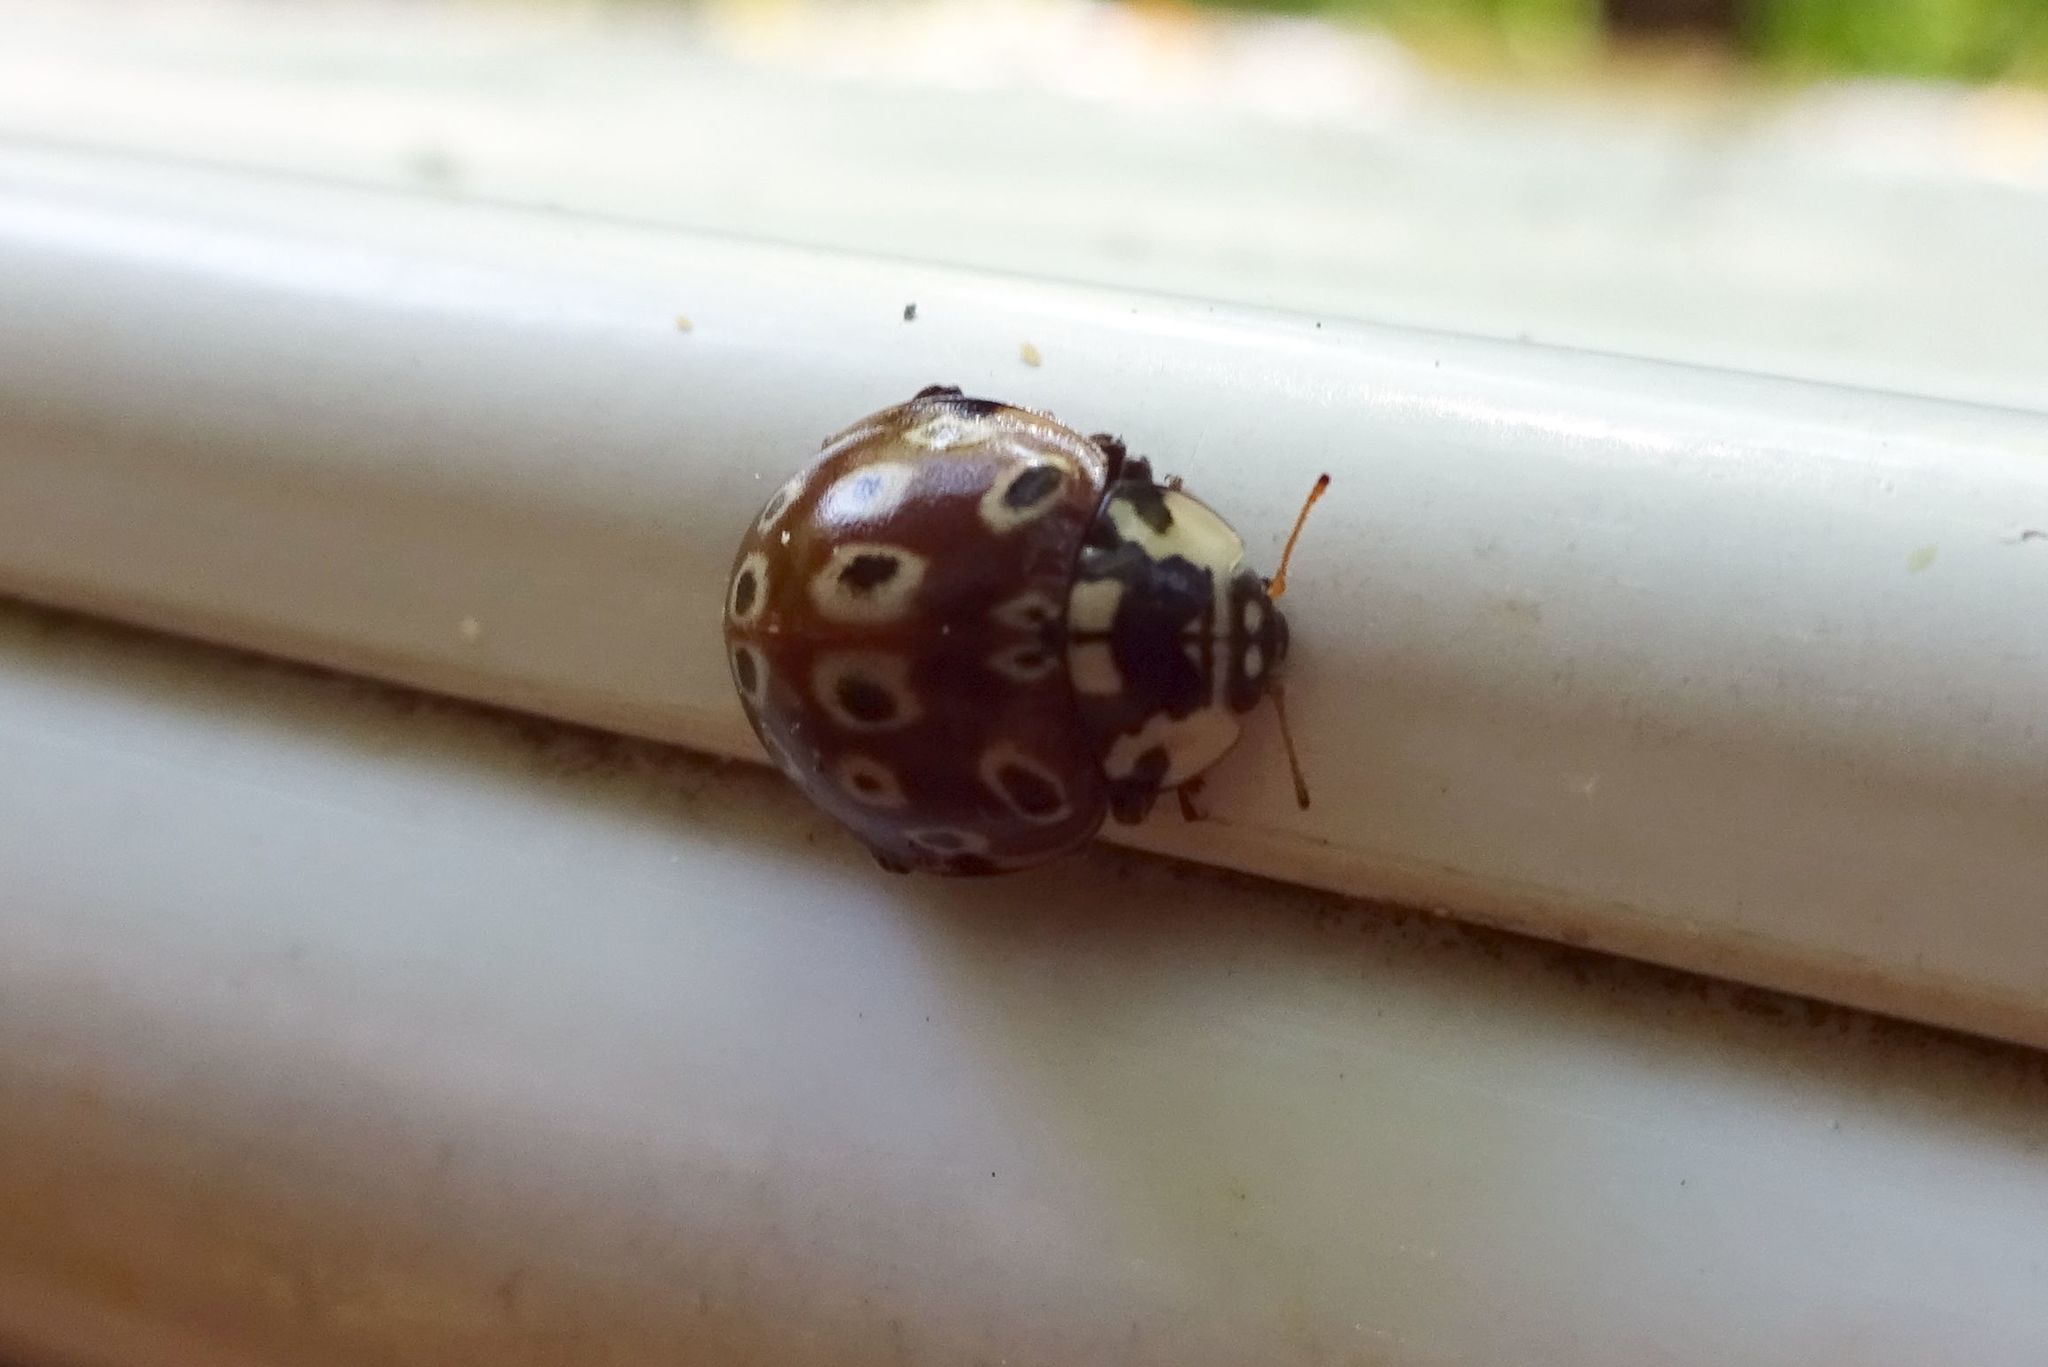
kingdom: Animalia
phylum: Arthropoda
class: Insecta
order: Coleoptera
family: Coccinellidae
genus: Anatis
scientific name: Anatis mali
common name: Eye-spotted lady beetle
